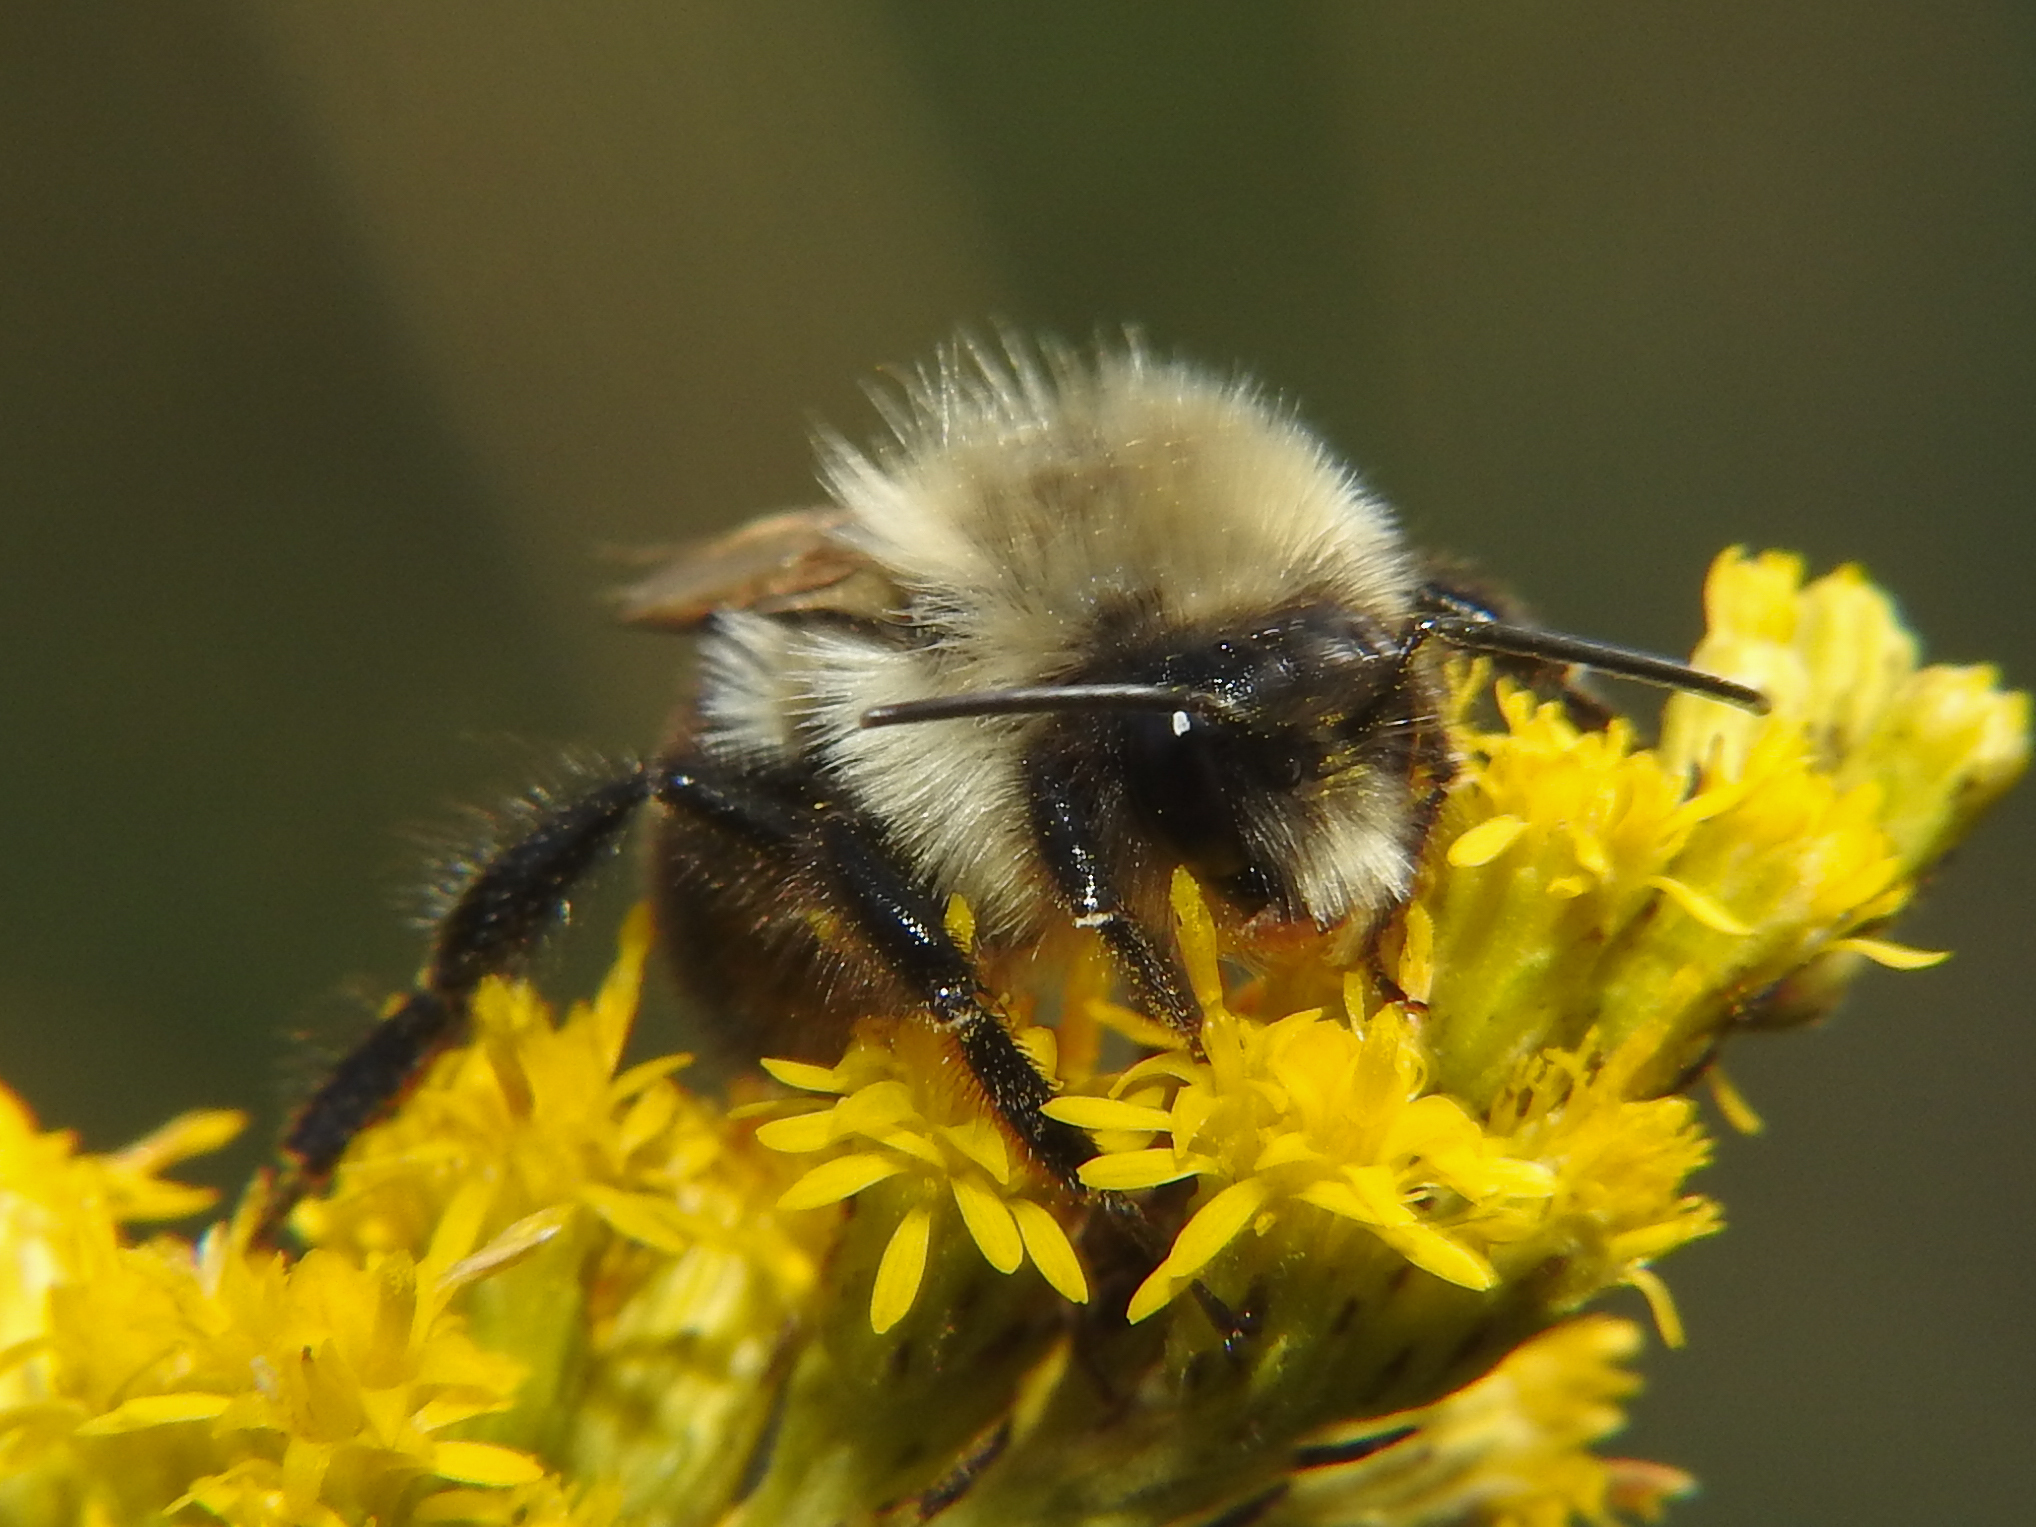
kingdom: Animalia
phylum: Arthropoda
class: Insecta
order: Hymenoptera
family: Apidae
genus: Bombus
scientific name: Bombus impatiens
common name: Common eastern bumble bee
